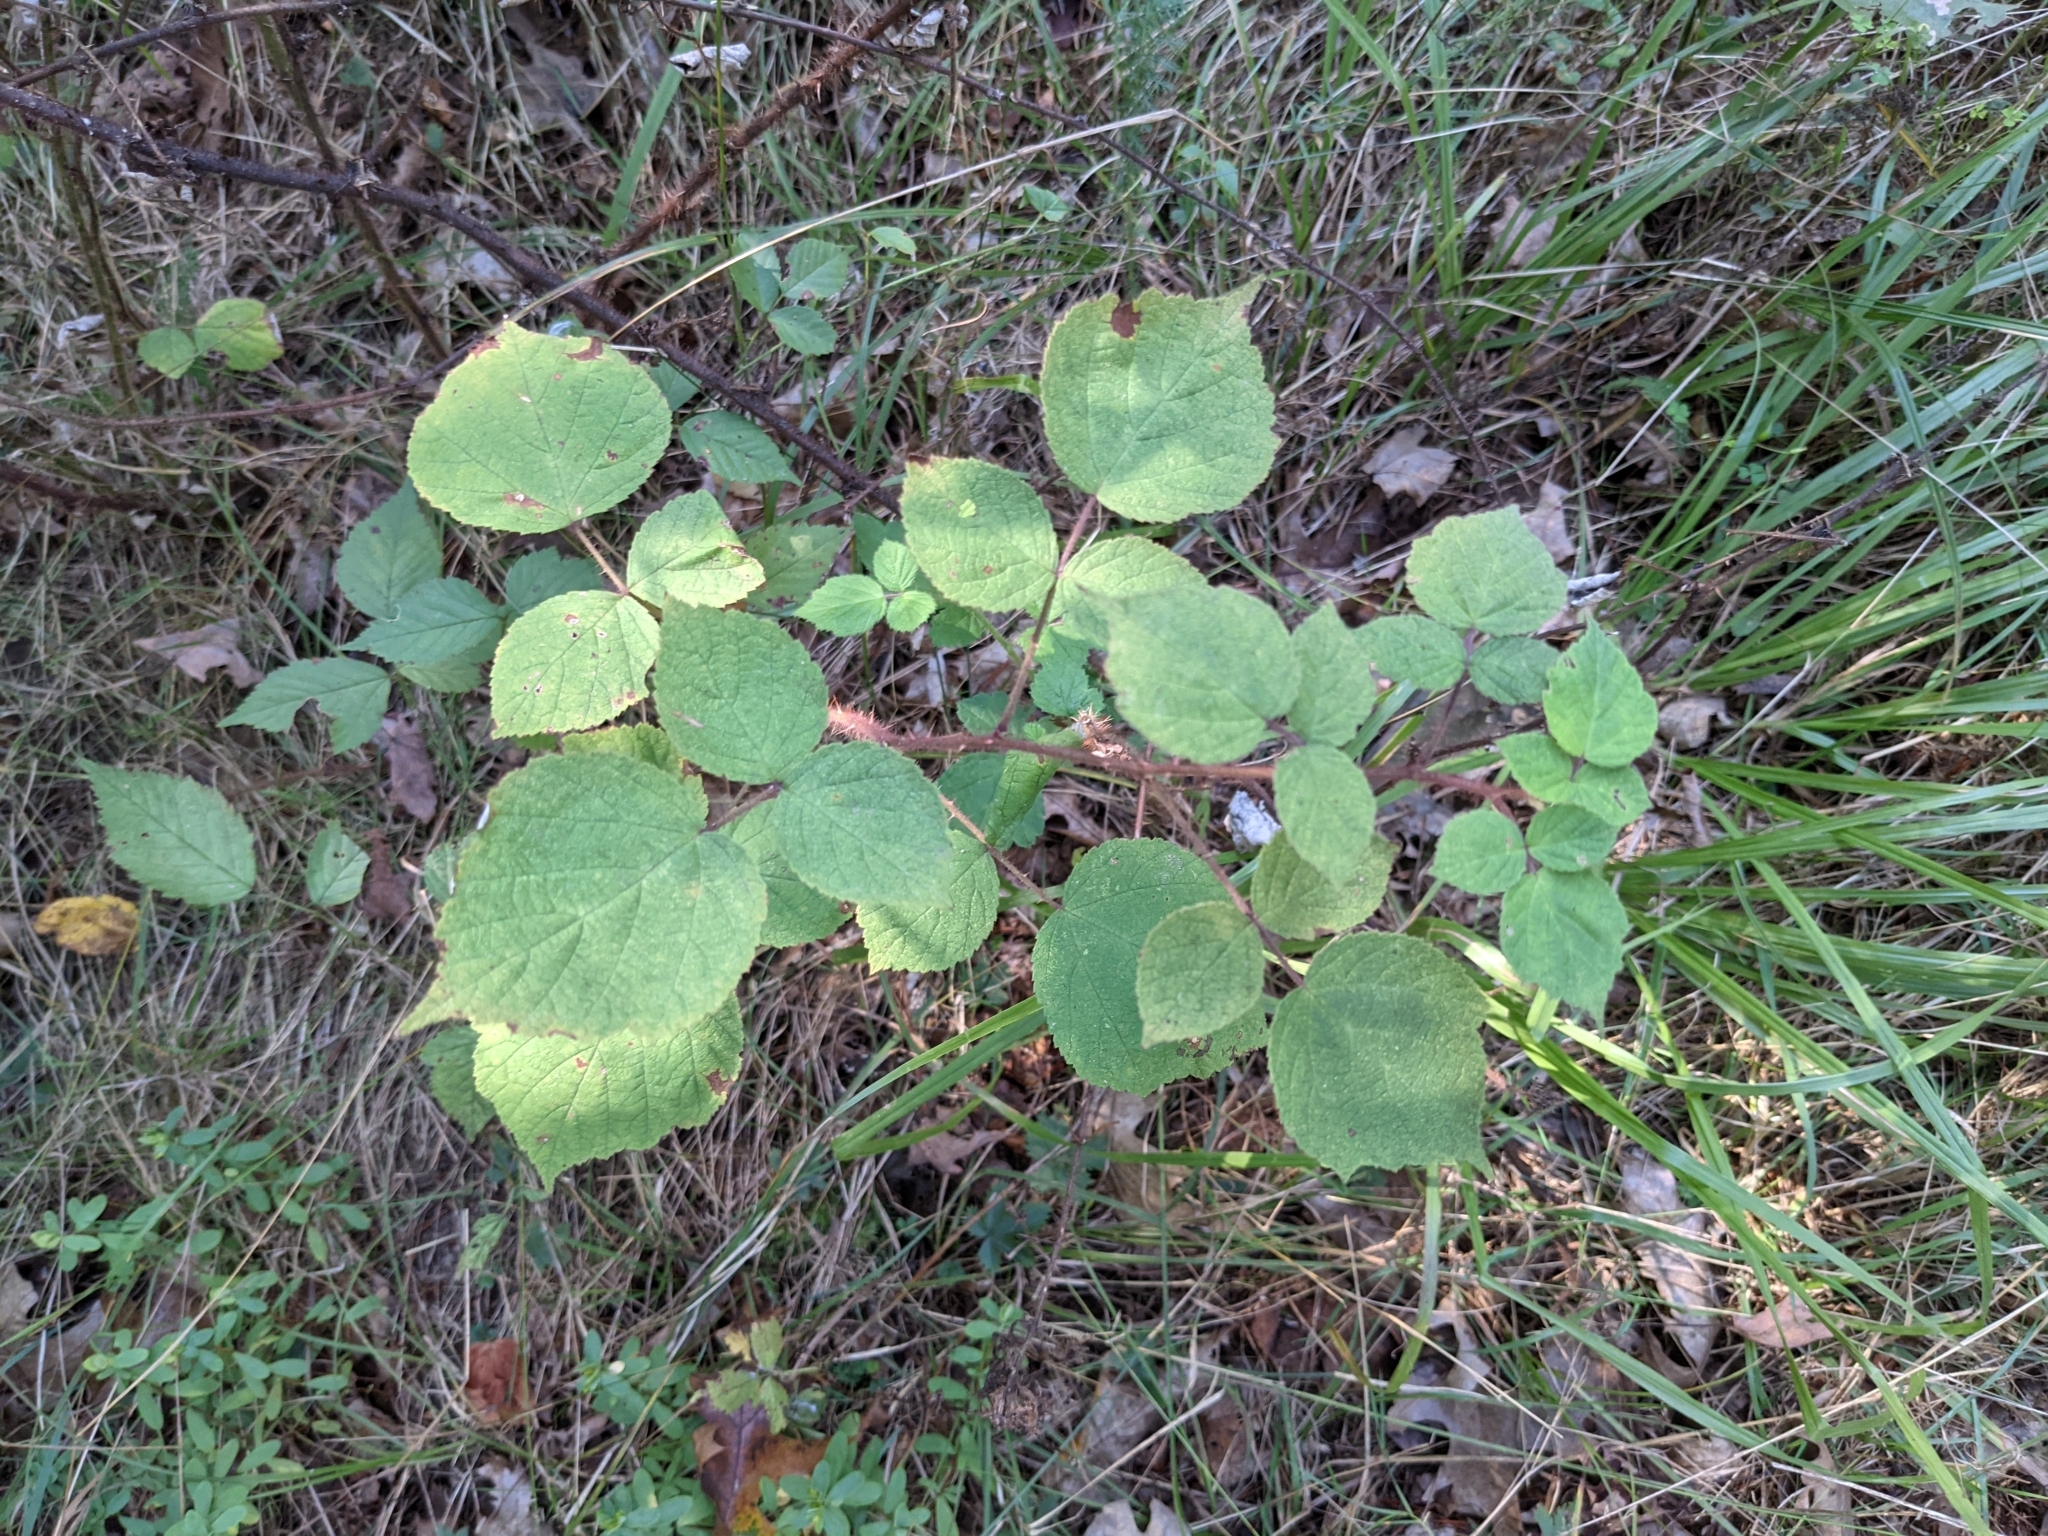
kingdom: Plantae
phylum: Tracheophyta
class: Magnoliopsida
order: Rosales
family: Rosaceae
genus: Rubus
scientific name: Rubus phoenicolasius
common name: Japanese wineberry
